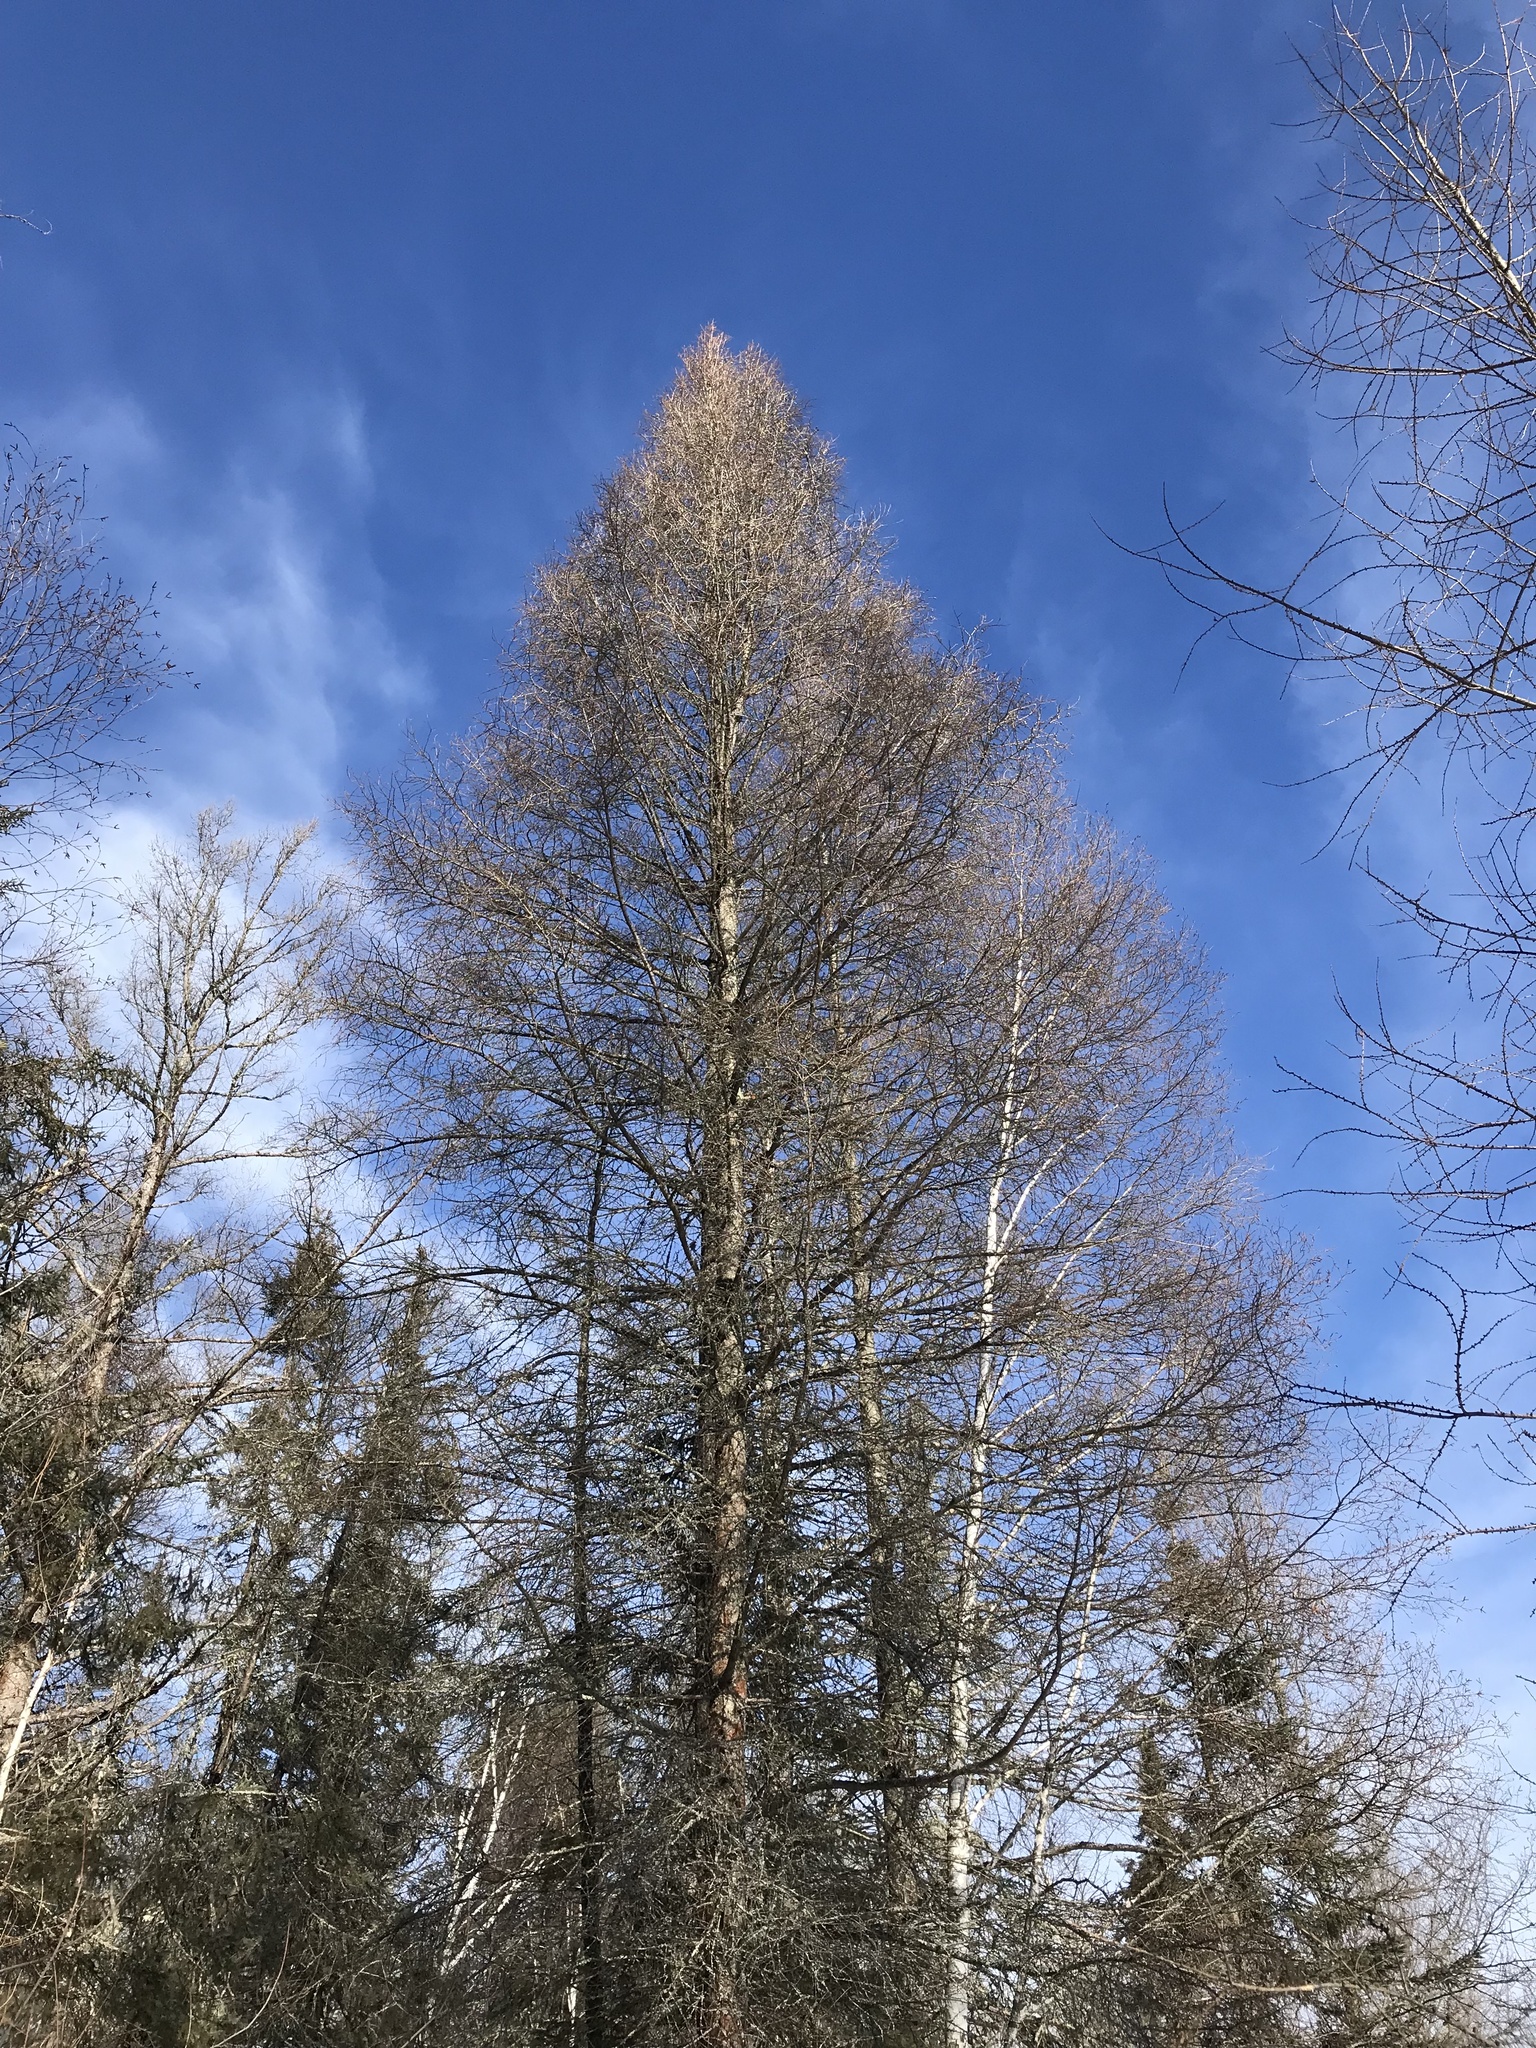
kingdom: Plantae
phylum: Tracheophyta
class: Pinopsida
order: Pinales
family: Pinaceae
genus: Larix
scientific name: Larix laricina
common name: American larch
